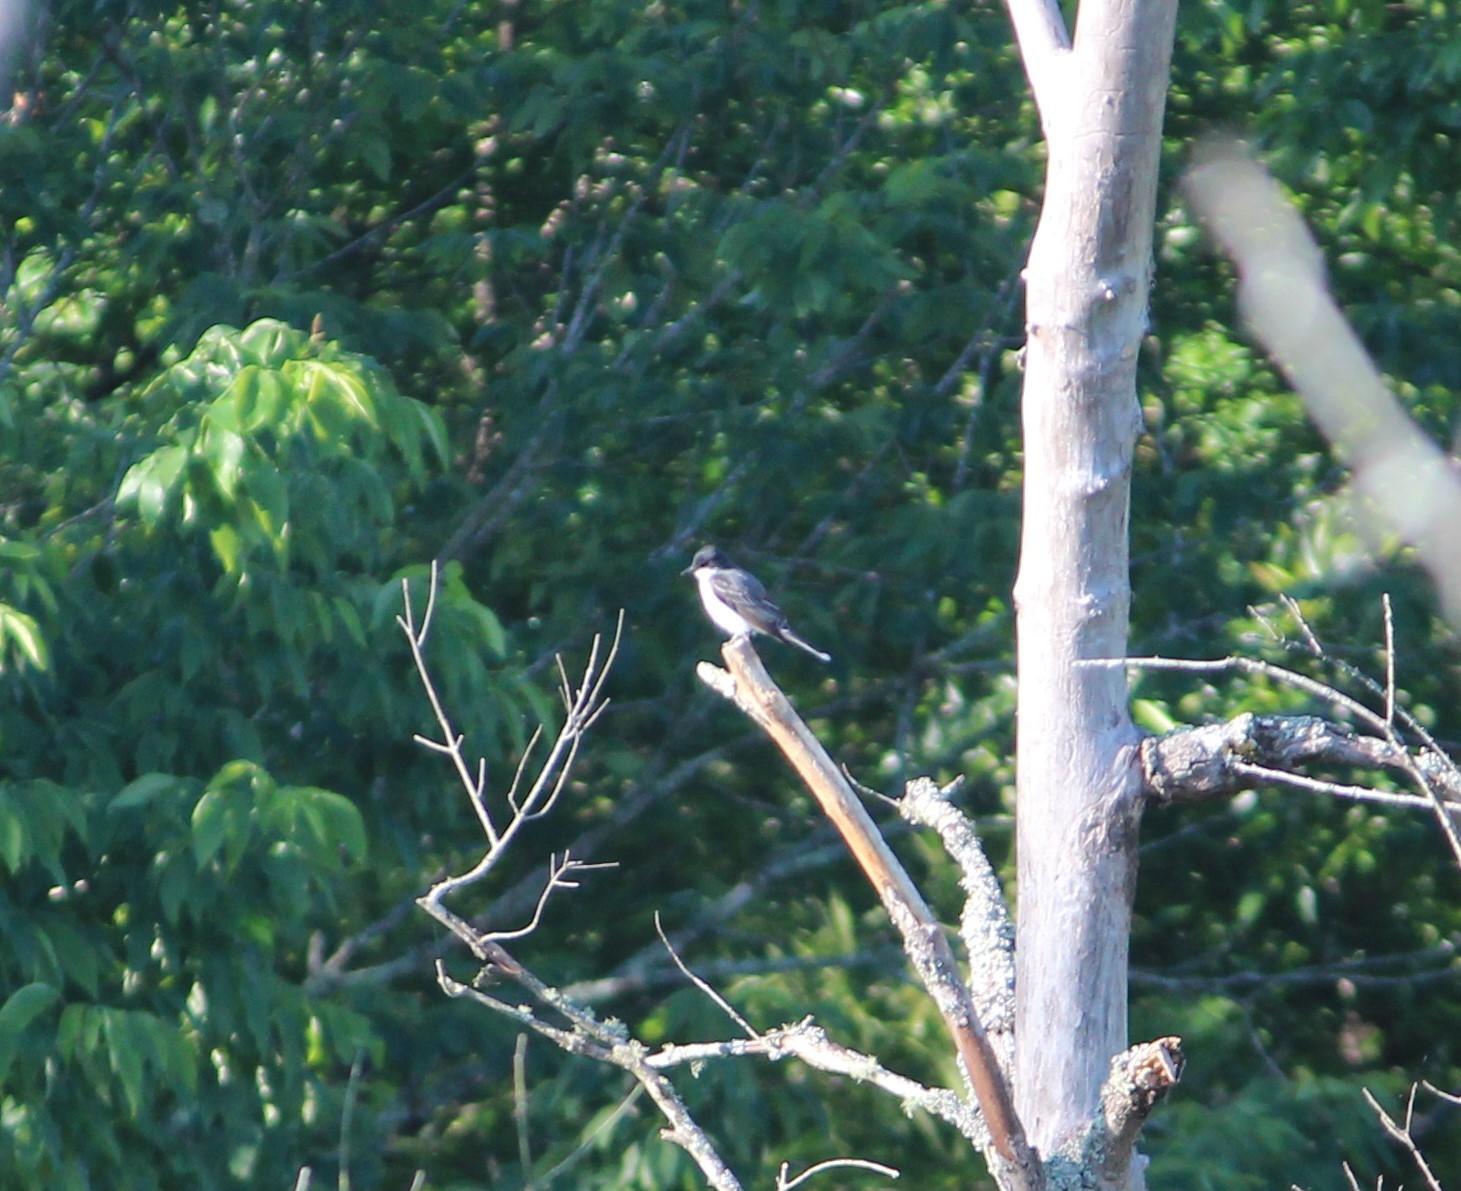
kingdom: Animalia
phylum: Chordata
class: Aves
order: Passeriformes
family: Tyrannidae
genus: Tyrannus
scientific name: Tyrannus tyrannus
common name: Eastern kingbird
